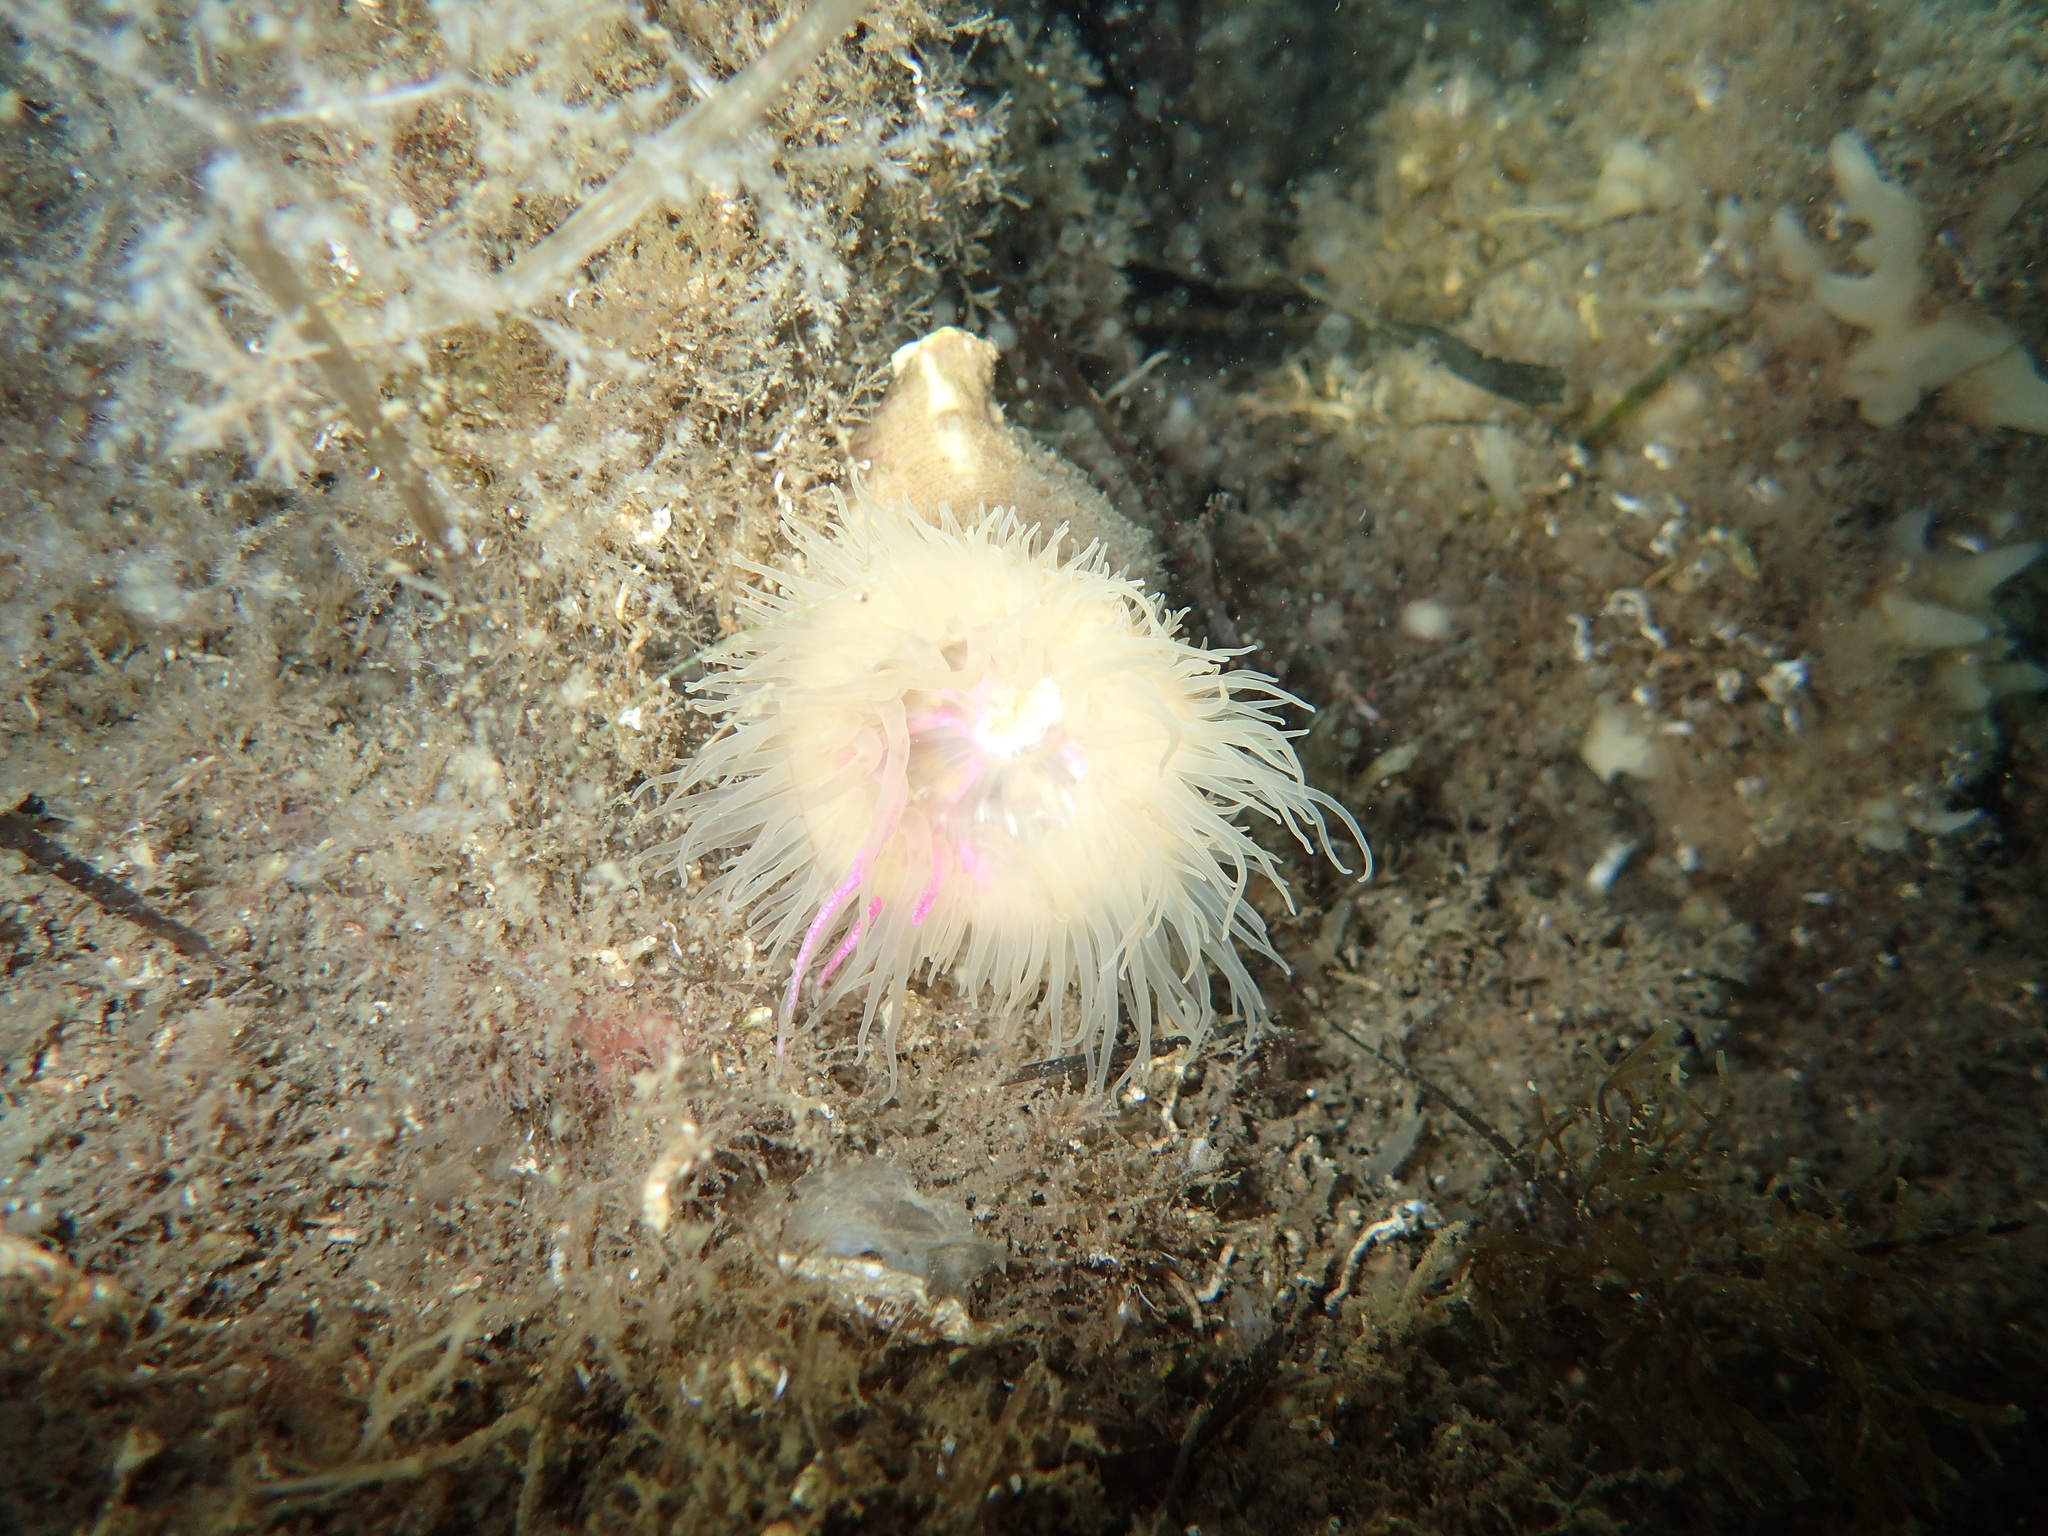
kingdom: Animalia
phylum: Cnidaria
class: Anthozoa
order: Actiniaria
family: Hormathiidae
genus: Calliactis
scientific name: Calliactis parasitica
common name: Parasitic anemone
